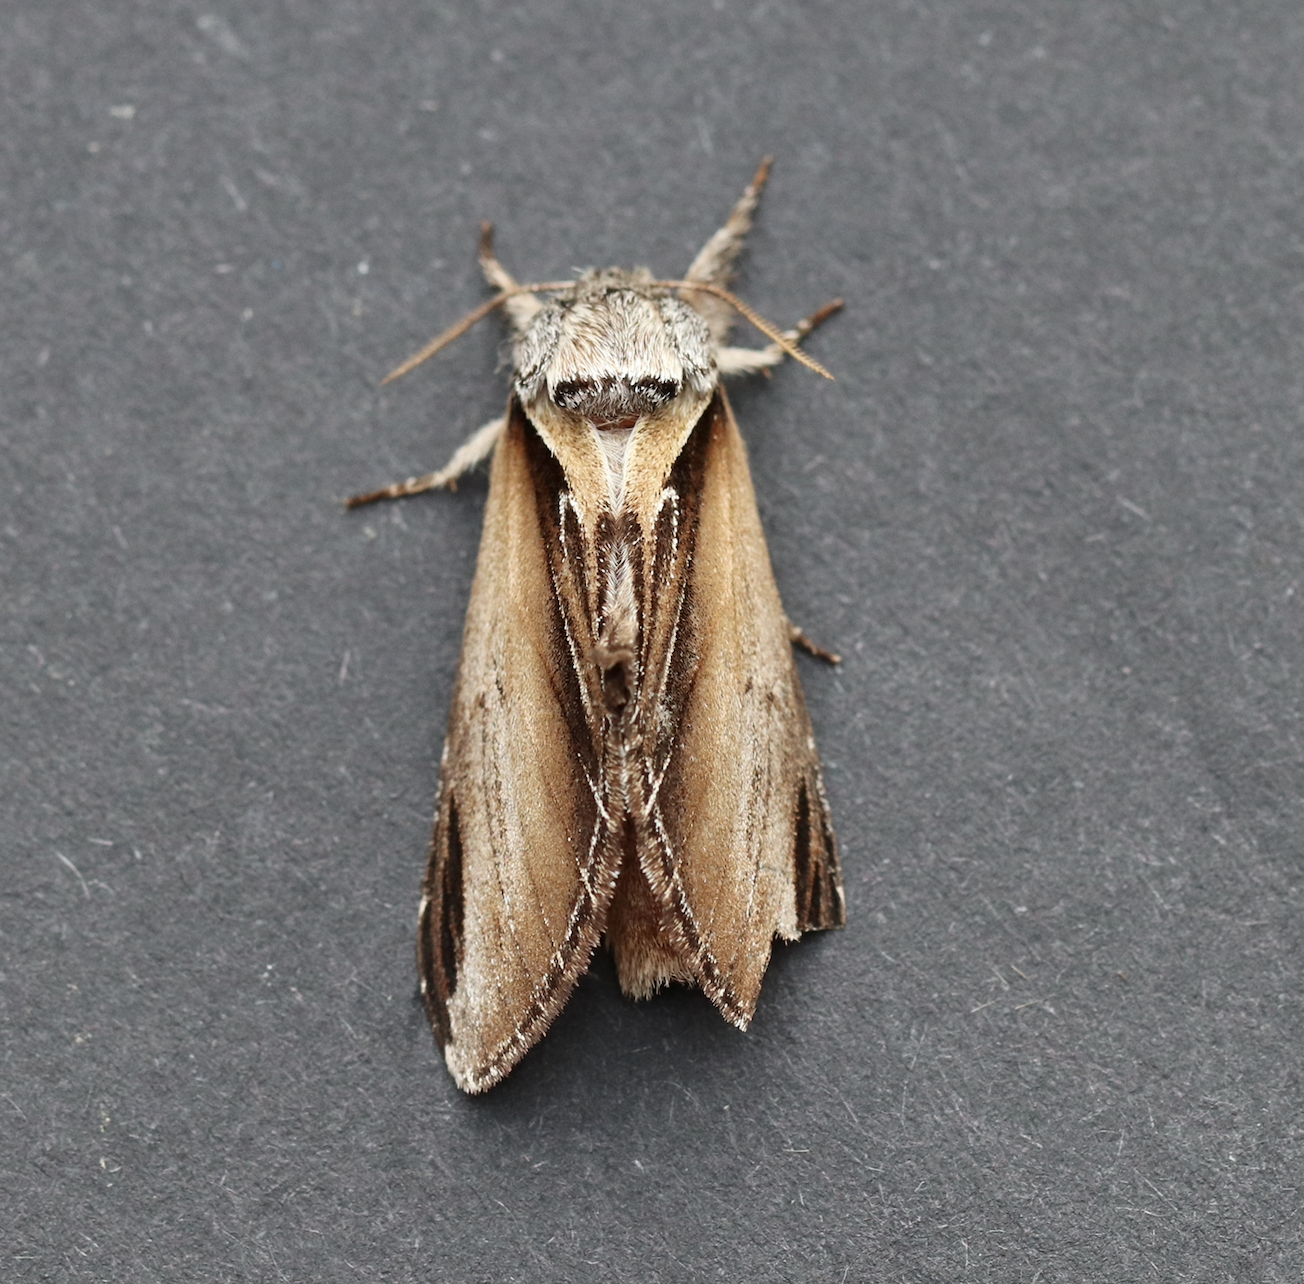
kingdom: Animalia
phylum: Arthropoda
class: Insecta
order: Lepidoptera
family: Notodontidae
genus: Pheosia
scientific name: Pheosia rimosa
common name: Black-rimmed prominent
